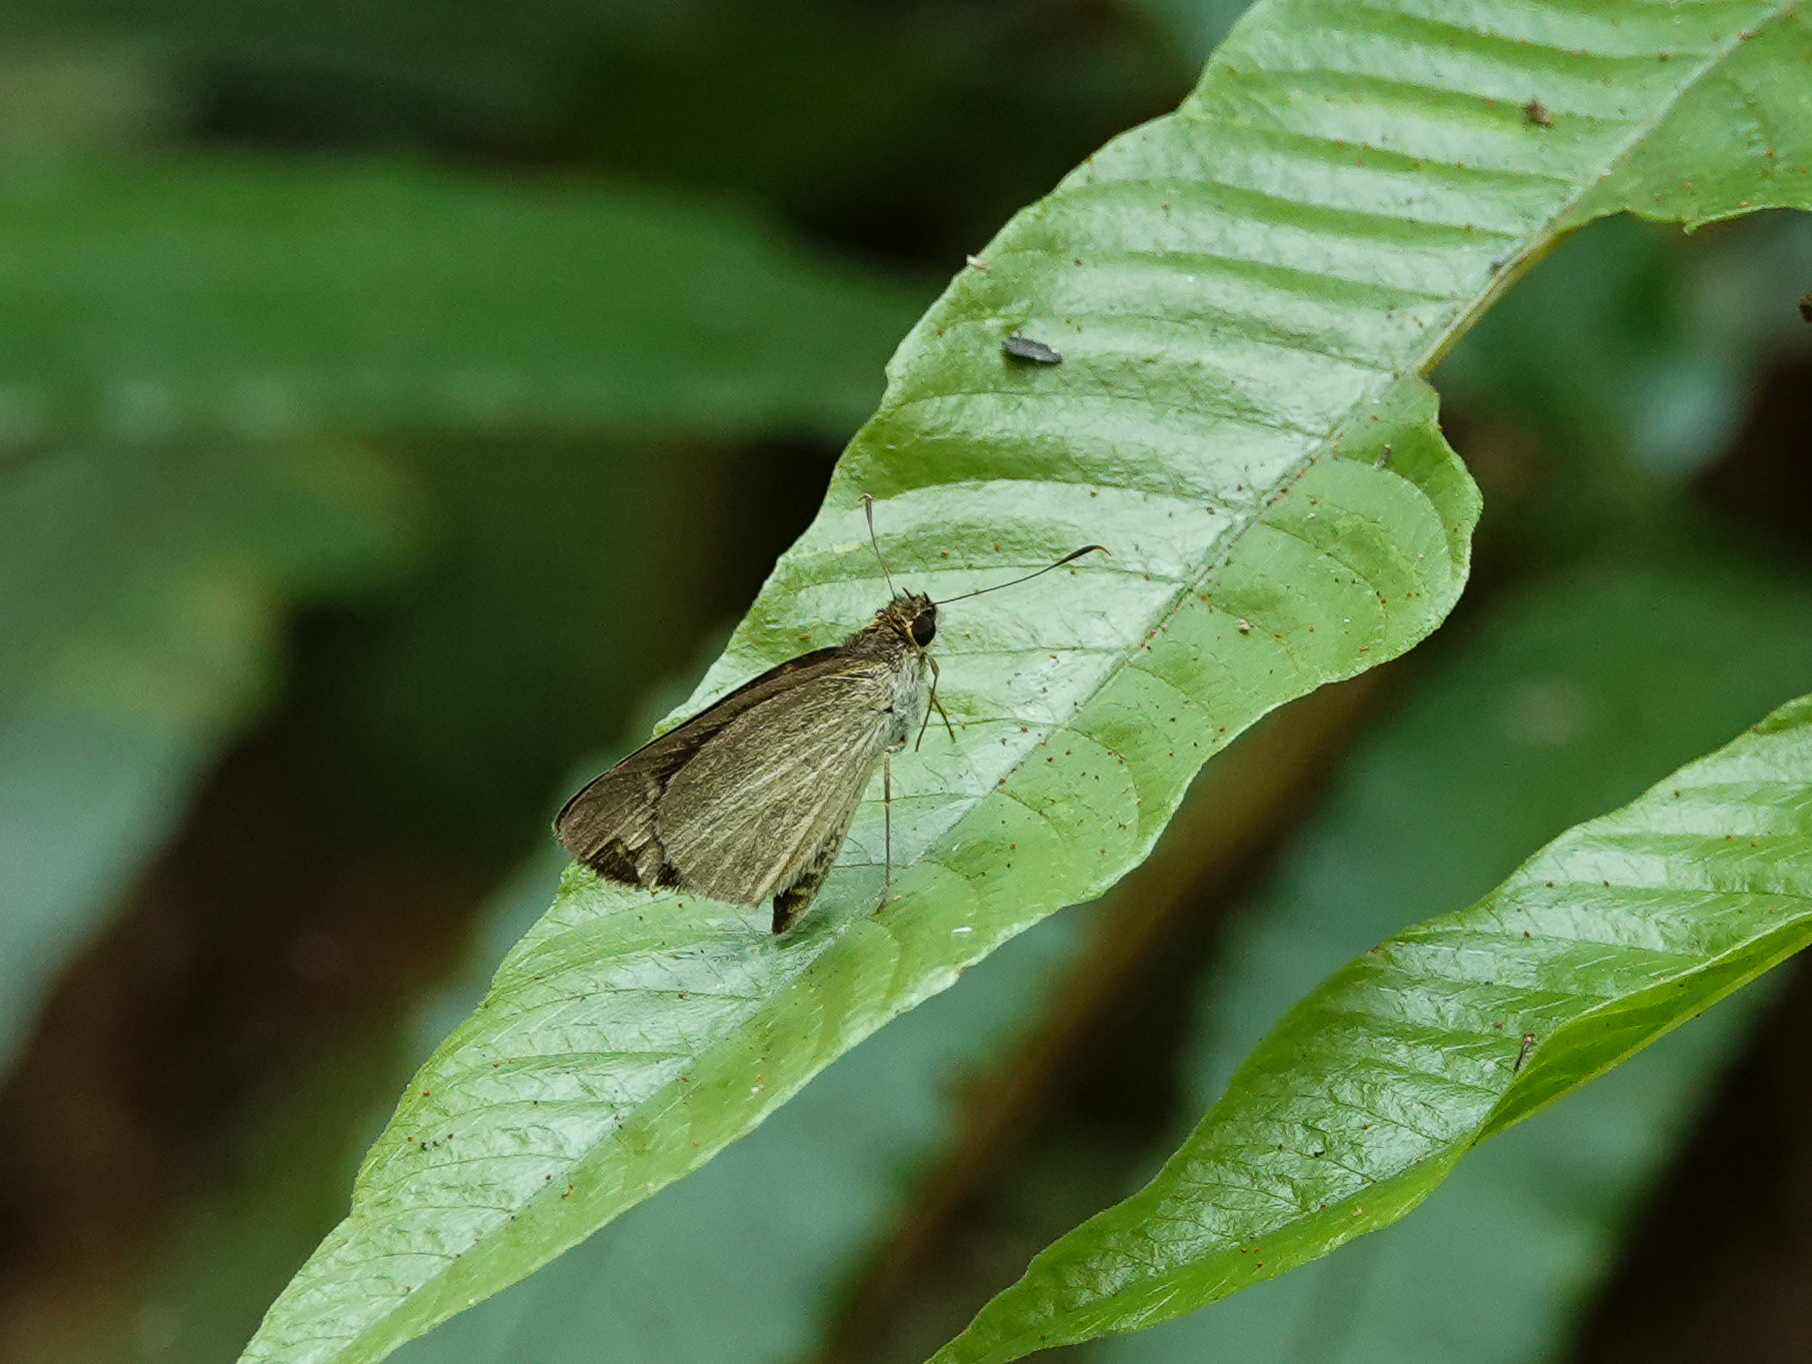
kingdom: Animalia
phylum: Arthropoda
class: Insecta
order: Lepidoptera
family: Hesperiidae
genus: Suada
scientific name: Suada swerga
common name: Grass bob
